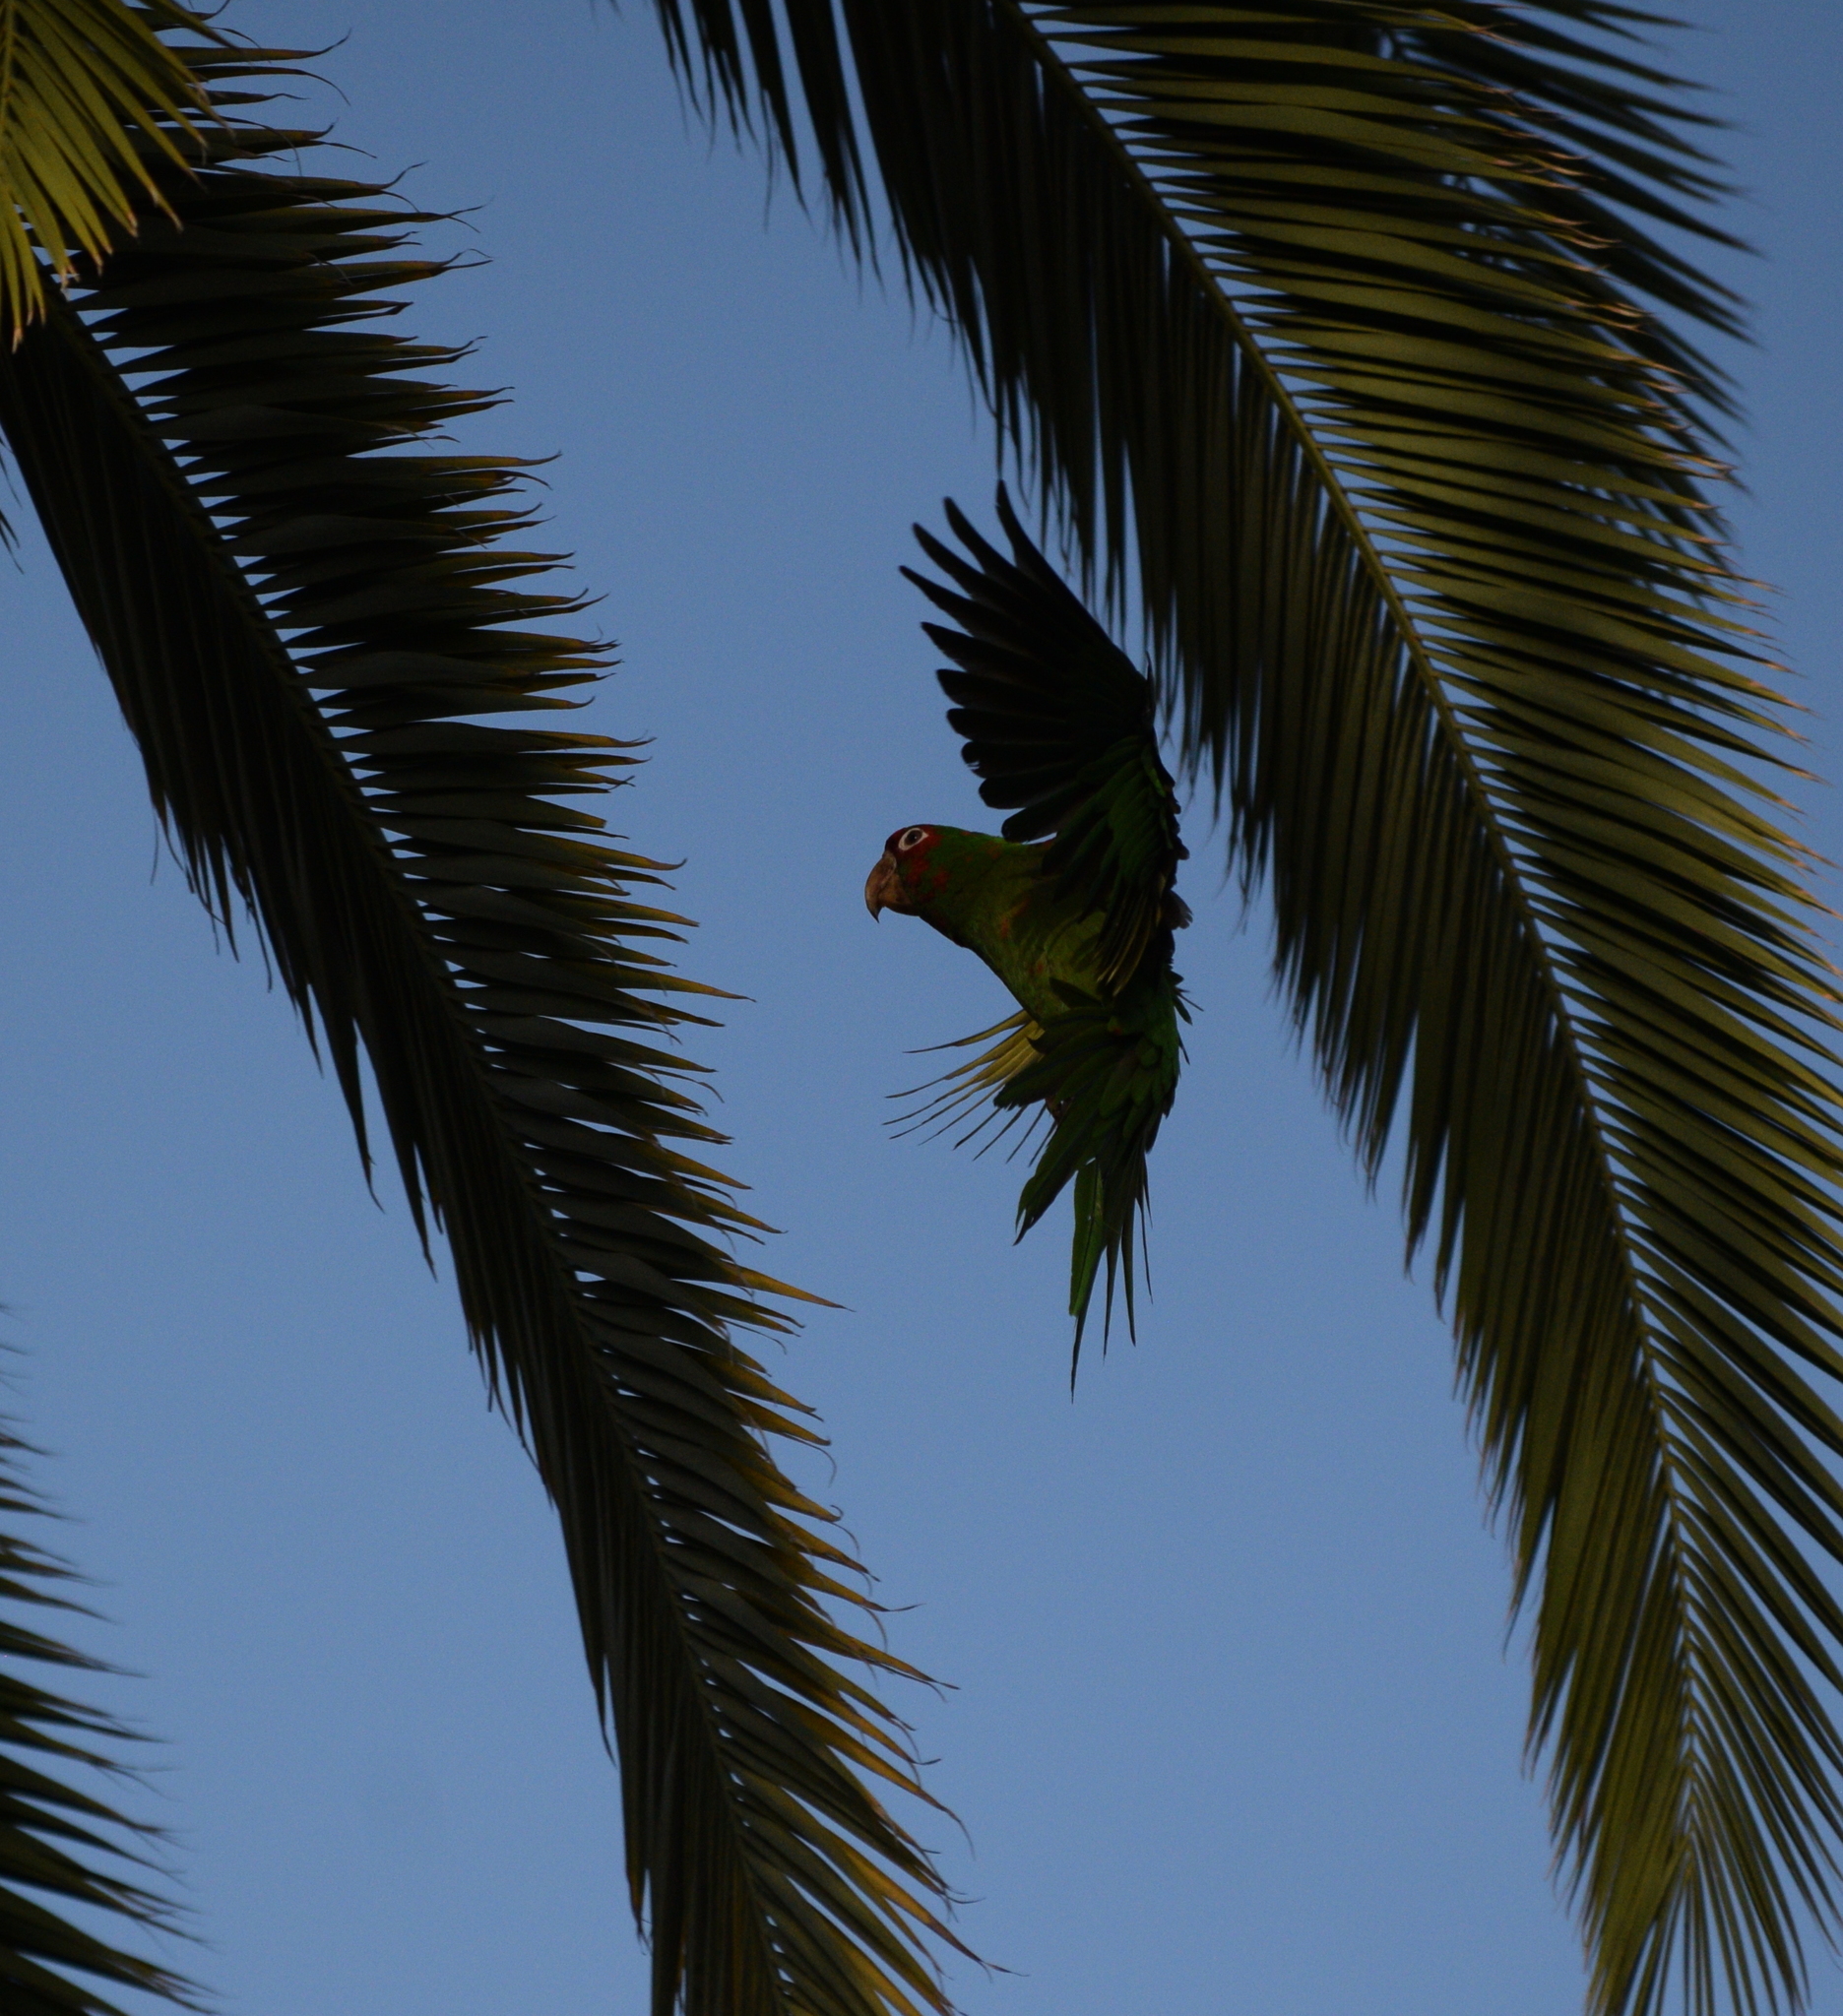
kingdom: Animalia
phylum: Chordata
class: Aves
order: Psittaciformes
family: Psittacidae
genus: Aratinga
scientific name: Aratinga mitrata
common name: Mitred parakeet
